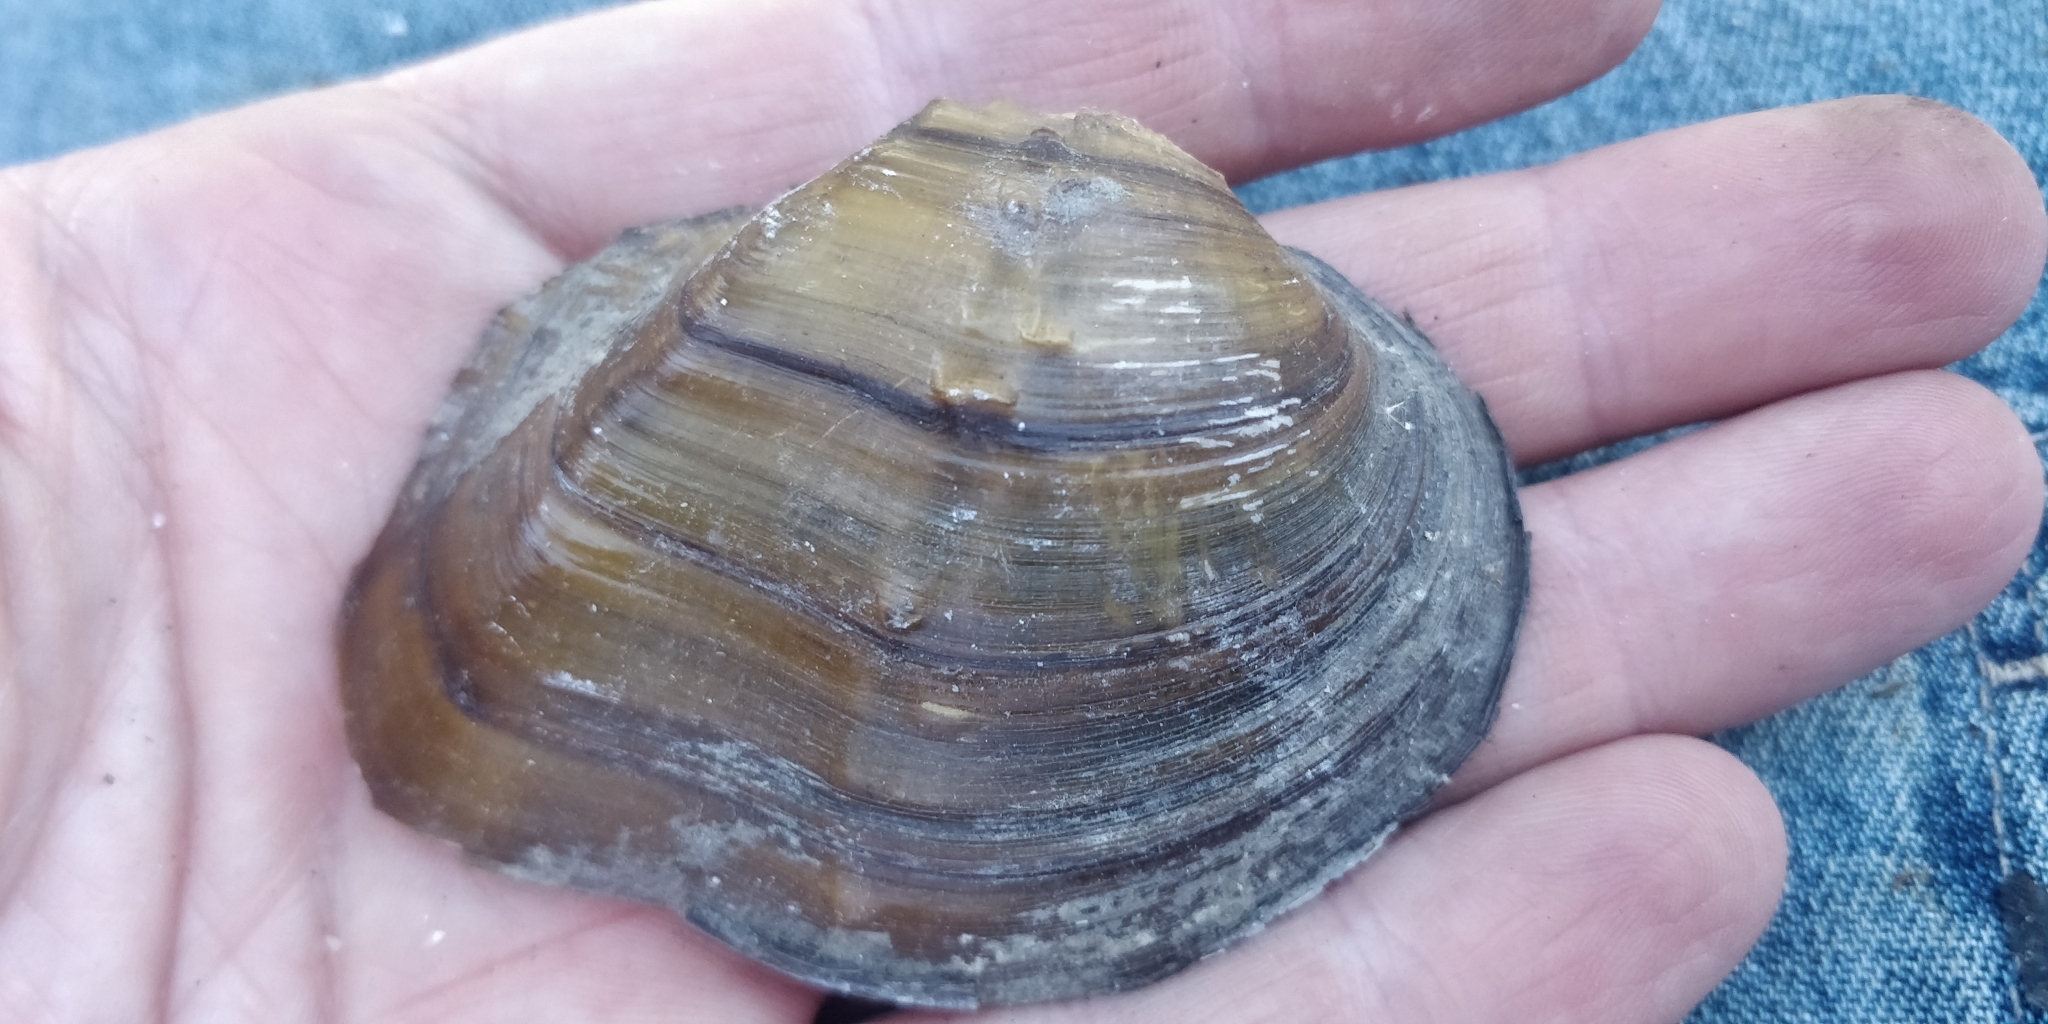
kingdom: Animalia
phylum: Mollusca
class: Bivalvia
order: Unionida
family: Unionidae
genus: Quadrula
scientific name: Quadrula quadrula
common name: Mapleleaf
